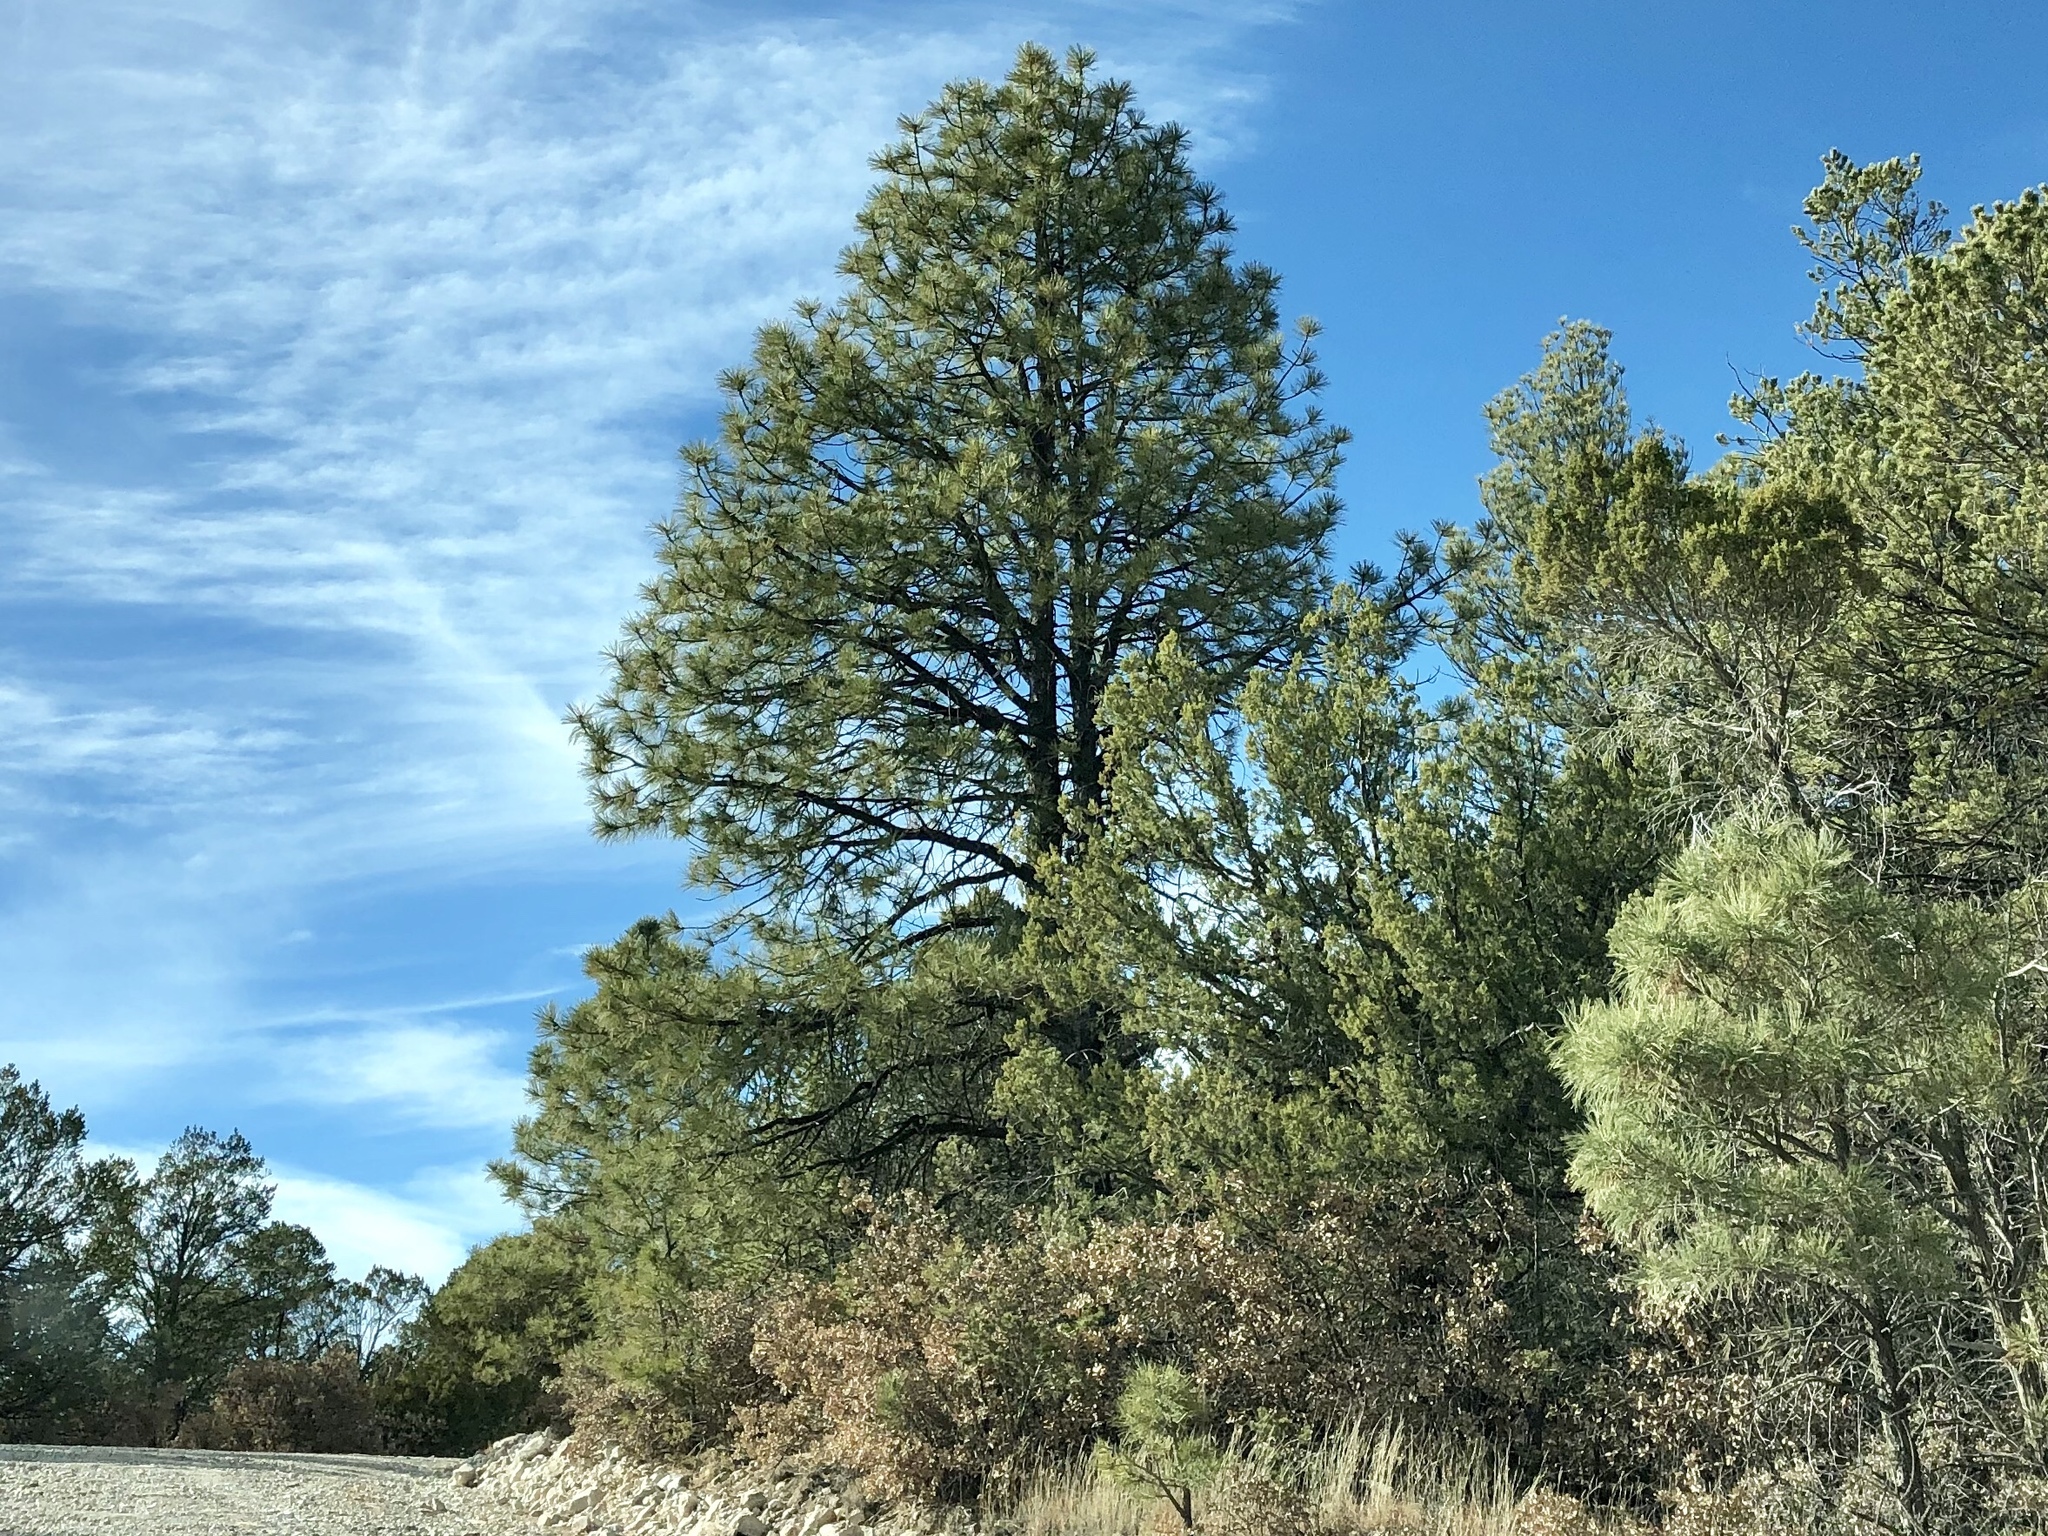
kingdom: Plantae
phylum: Tracheophyta
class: Pinopsida
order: Pinales
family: Pinaceae
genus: Pinus
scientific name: Pinus ponderosa
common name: Western yellow-pine
